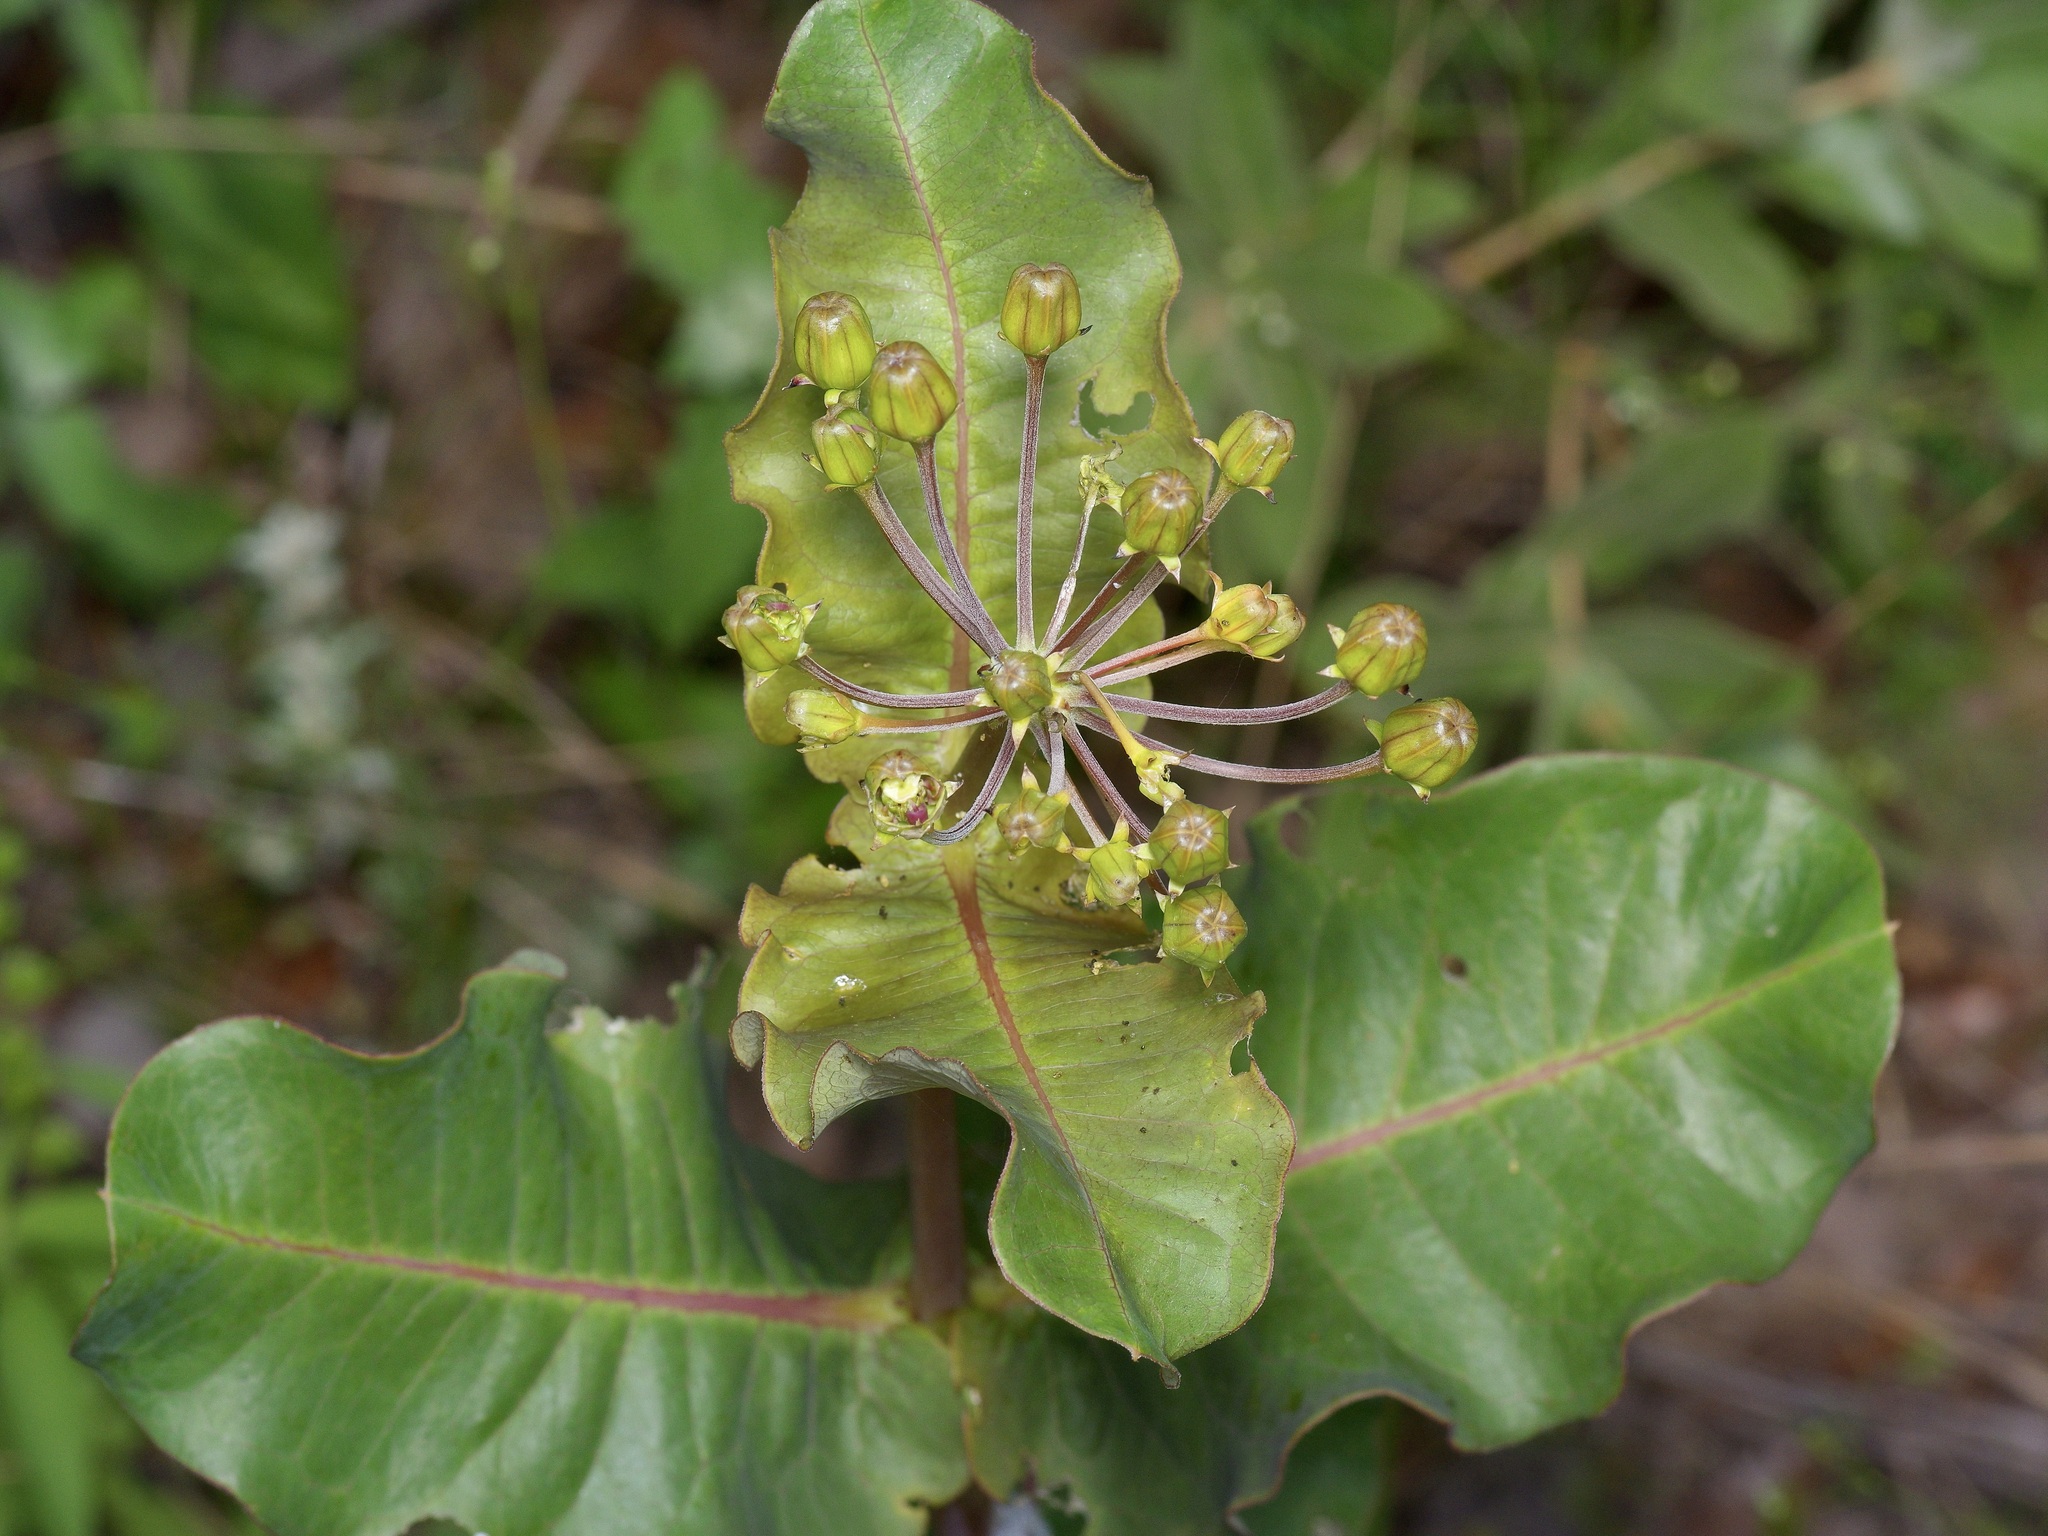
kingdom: Plantae
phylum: Tracheophyta
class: Magnoliopsida
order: Gentianales
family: Apocynaceae
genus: Asclepias
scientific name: Asclepias amplexicaulis
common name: Blunt-leaf milkweed
